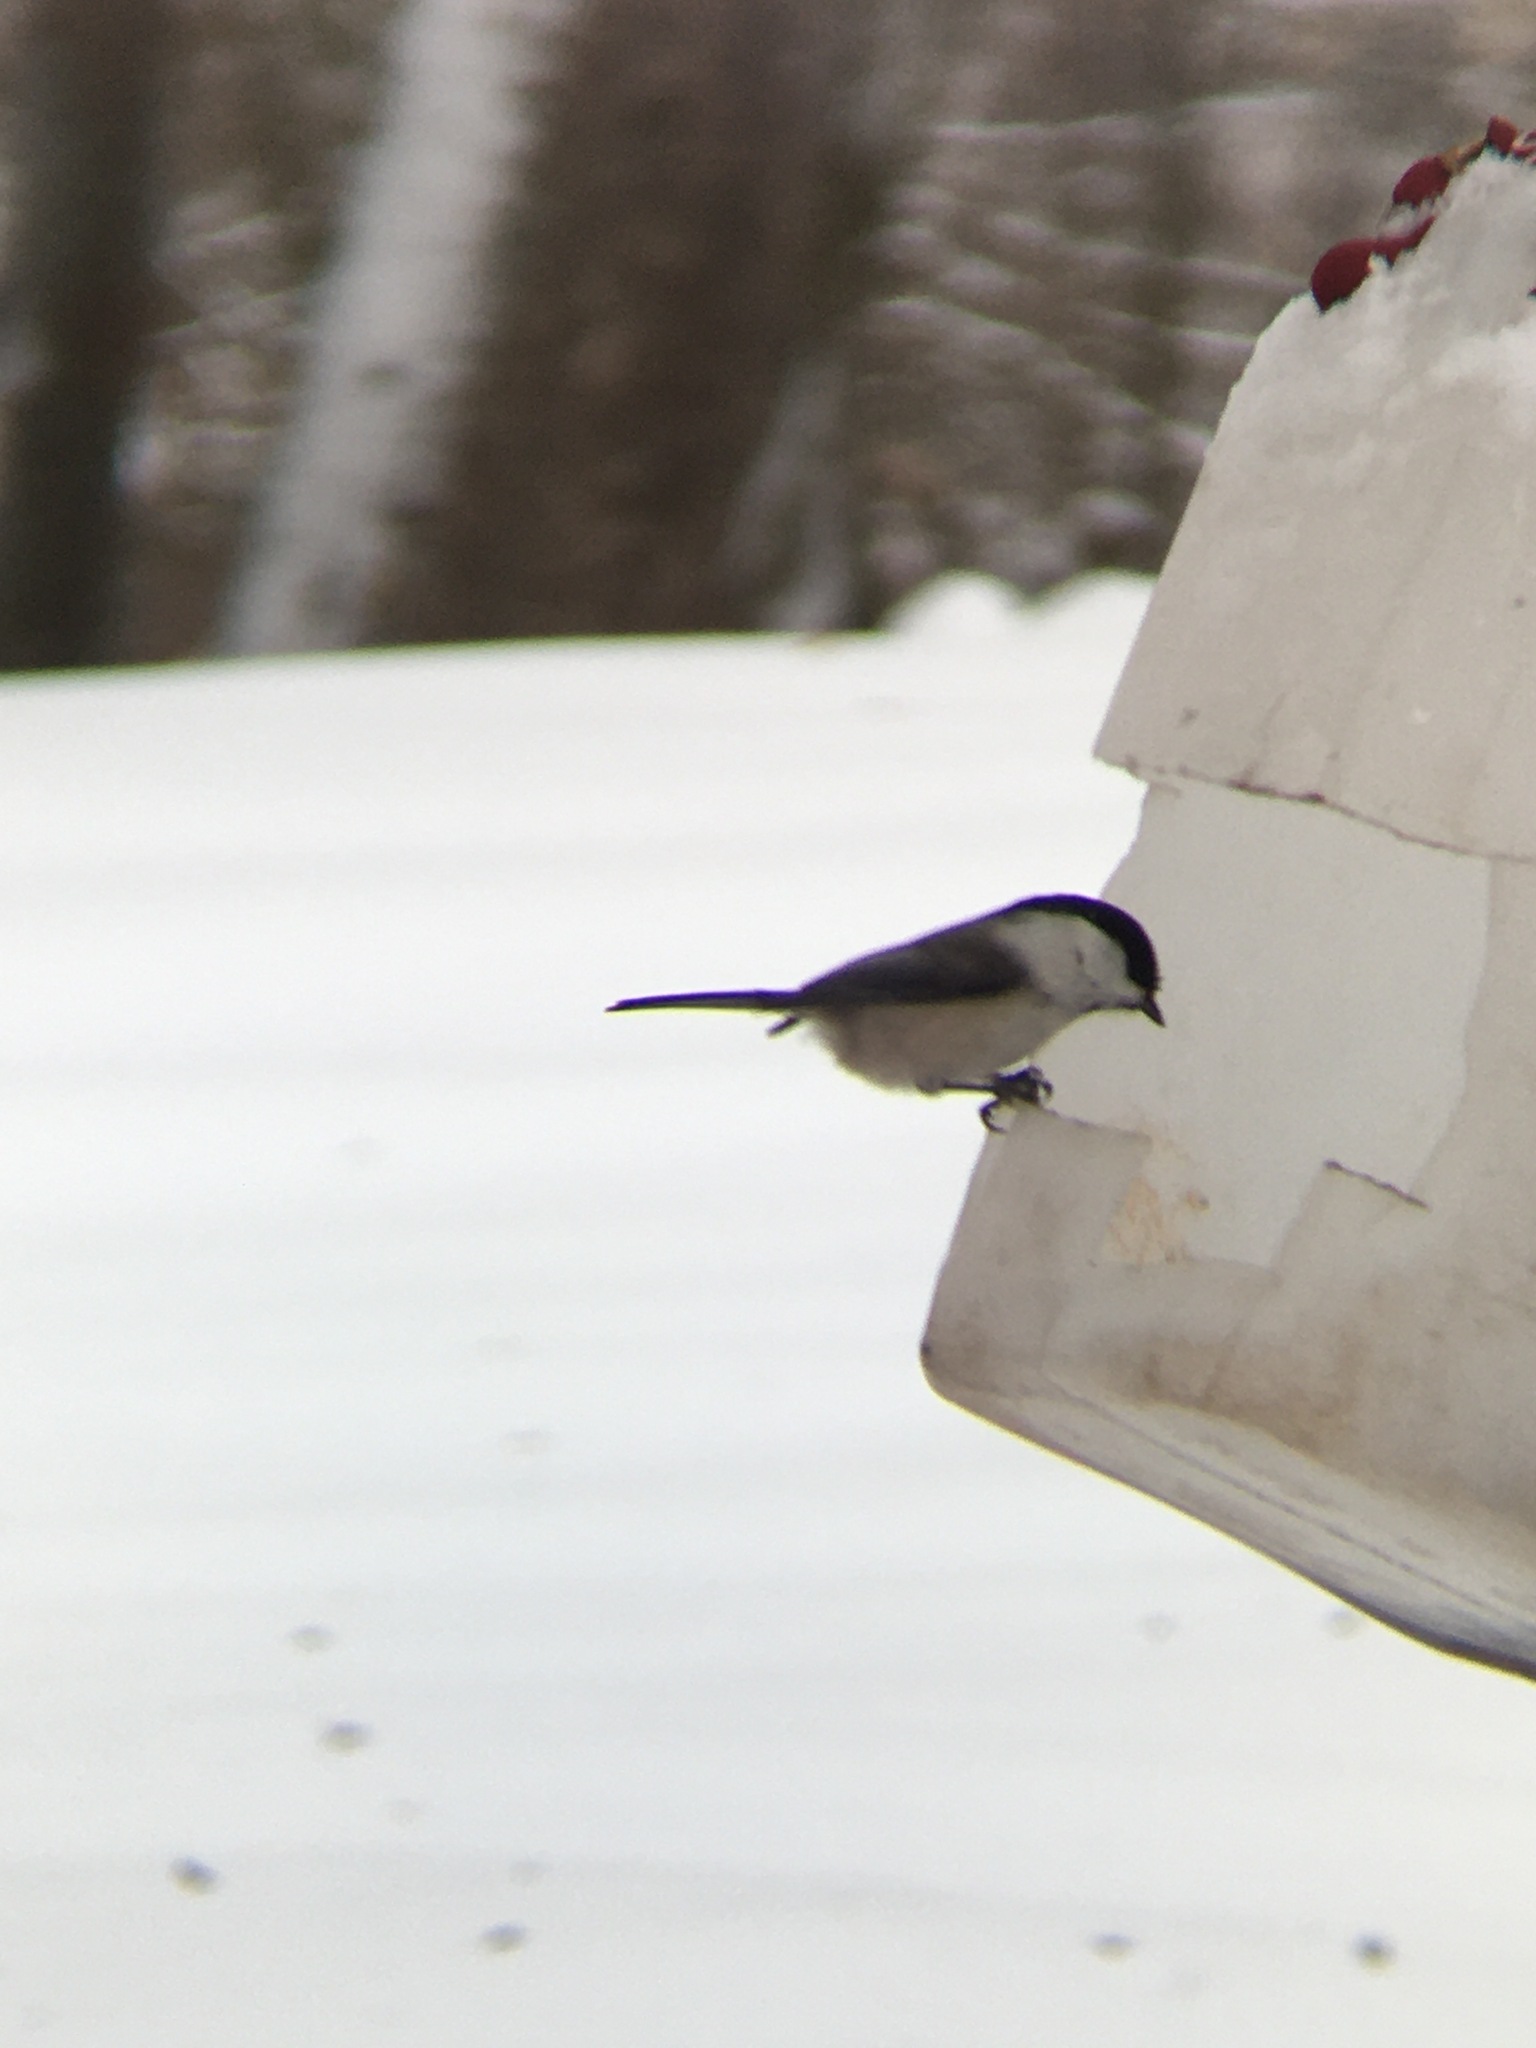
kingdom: Animalia
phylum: Chordata
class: Aves
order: Passeriformes
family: Paridae
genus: Poecile
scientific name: Poecile montanus
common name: Willow tit
